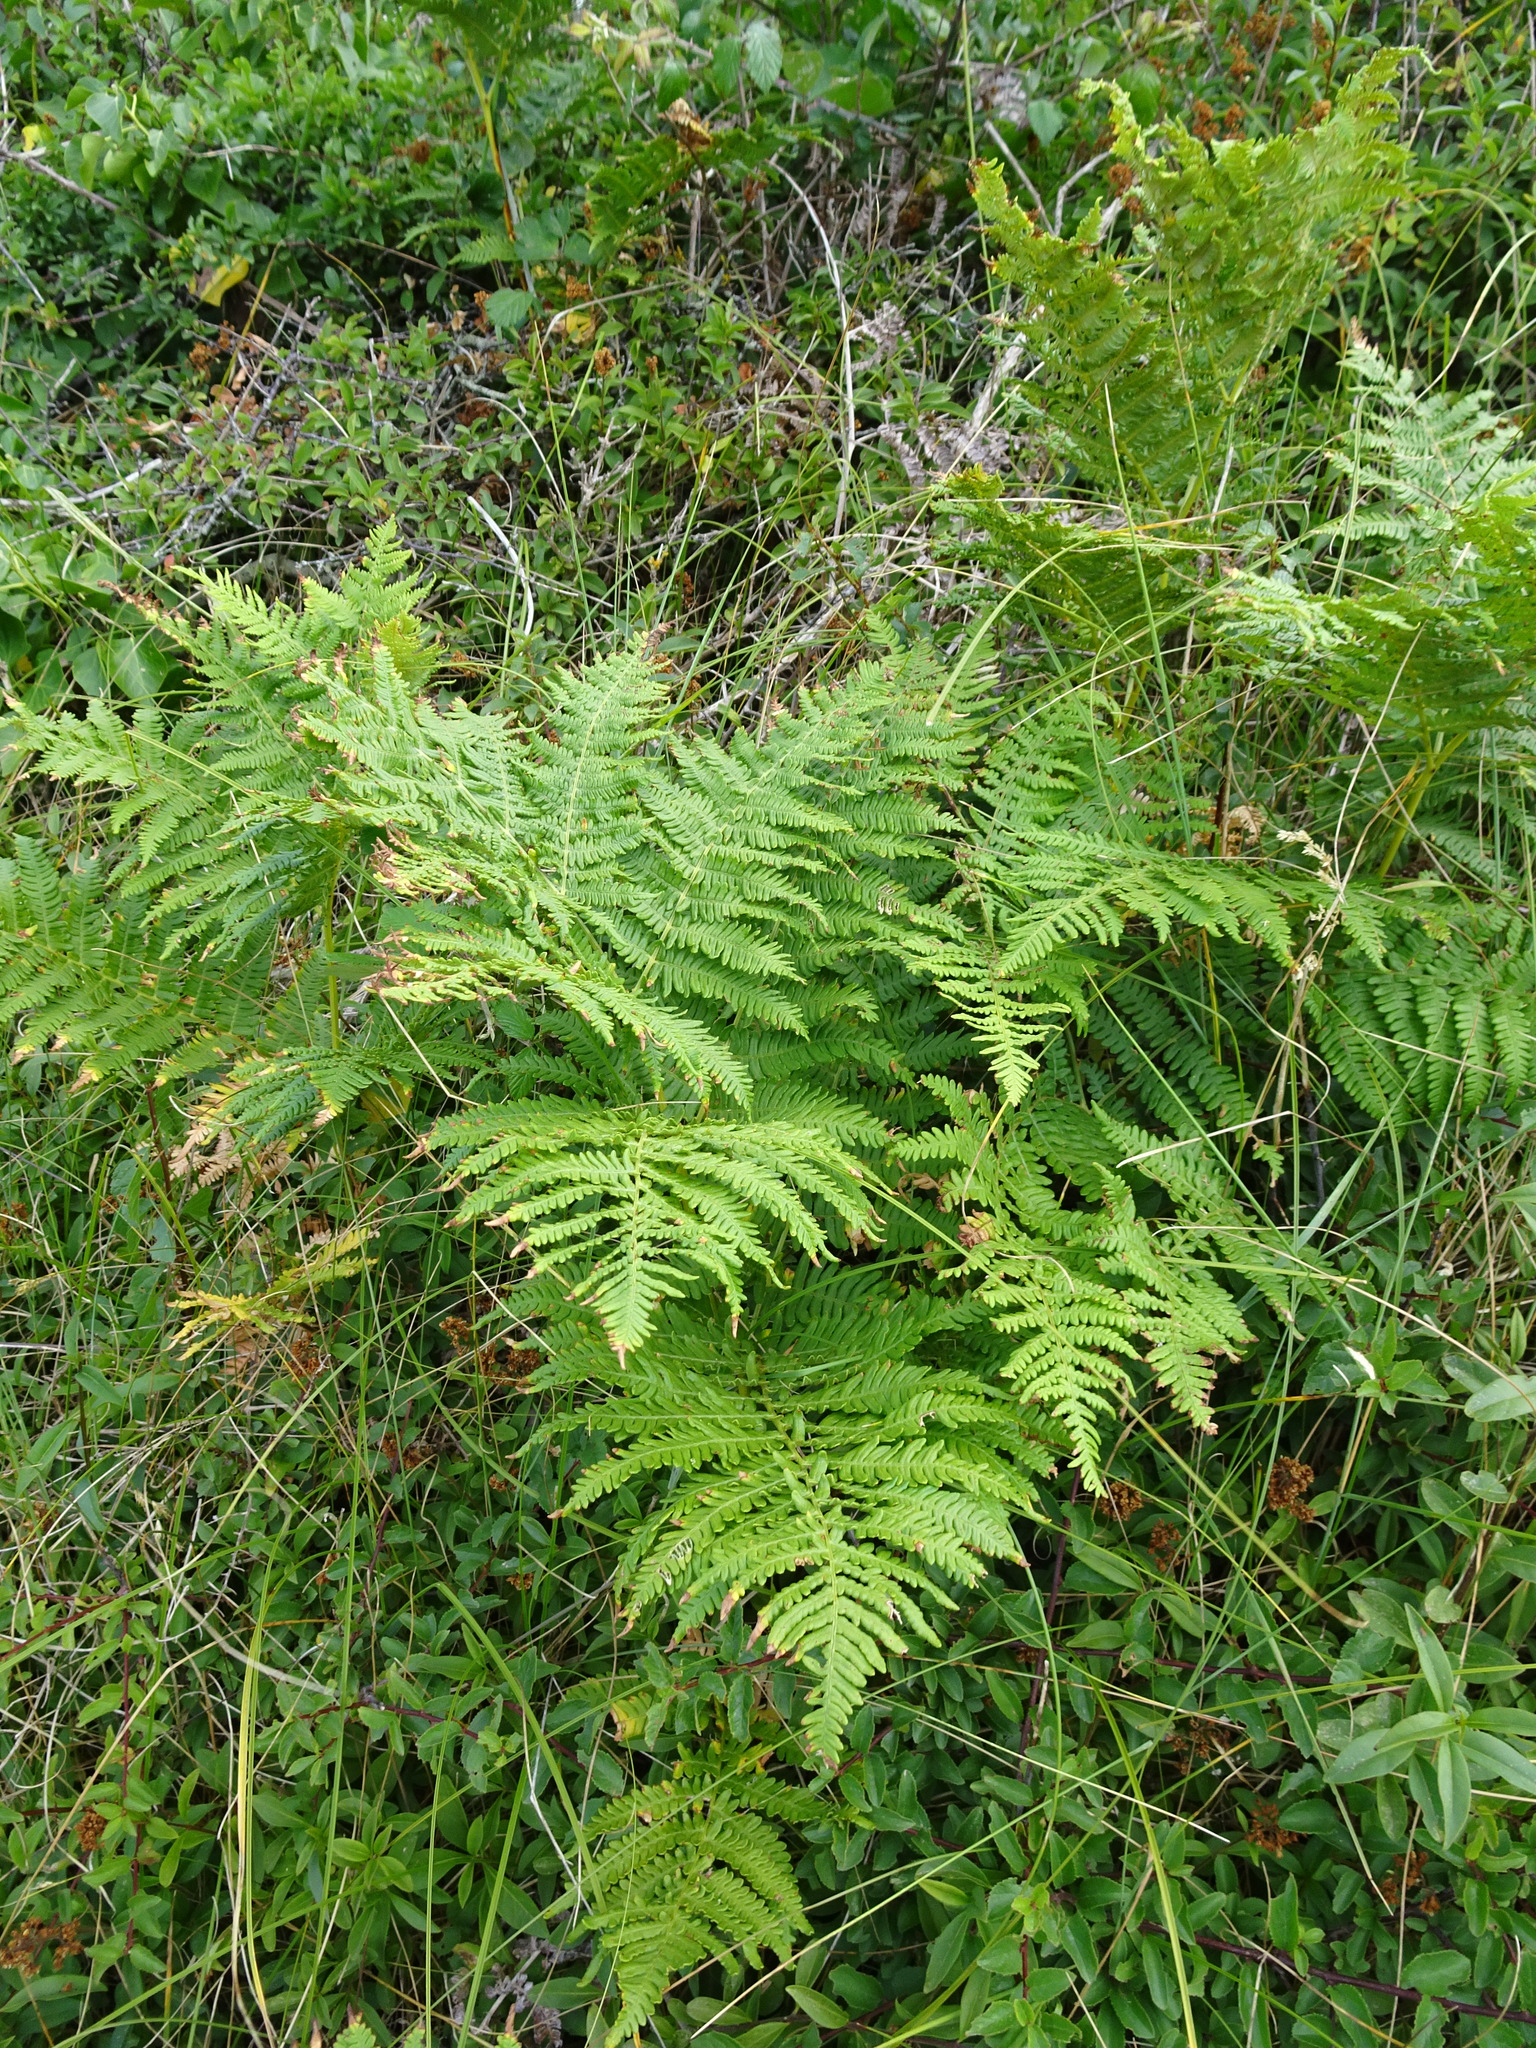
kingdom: Plantae
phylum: Tracheophyta
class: Polypodiopsida
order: Polypodiales
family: Dennstaedtiaceae
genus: Pteridium
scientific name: Pteridium aquilinum
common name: Bracken
